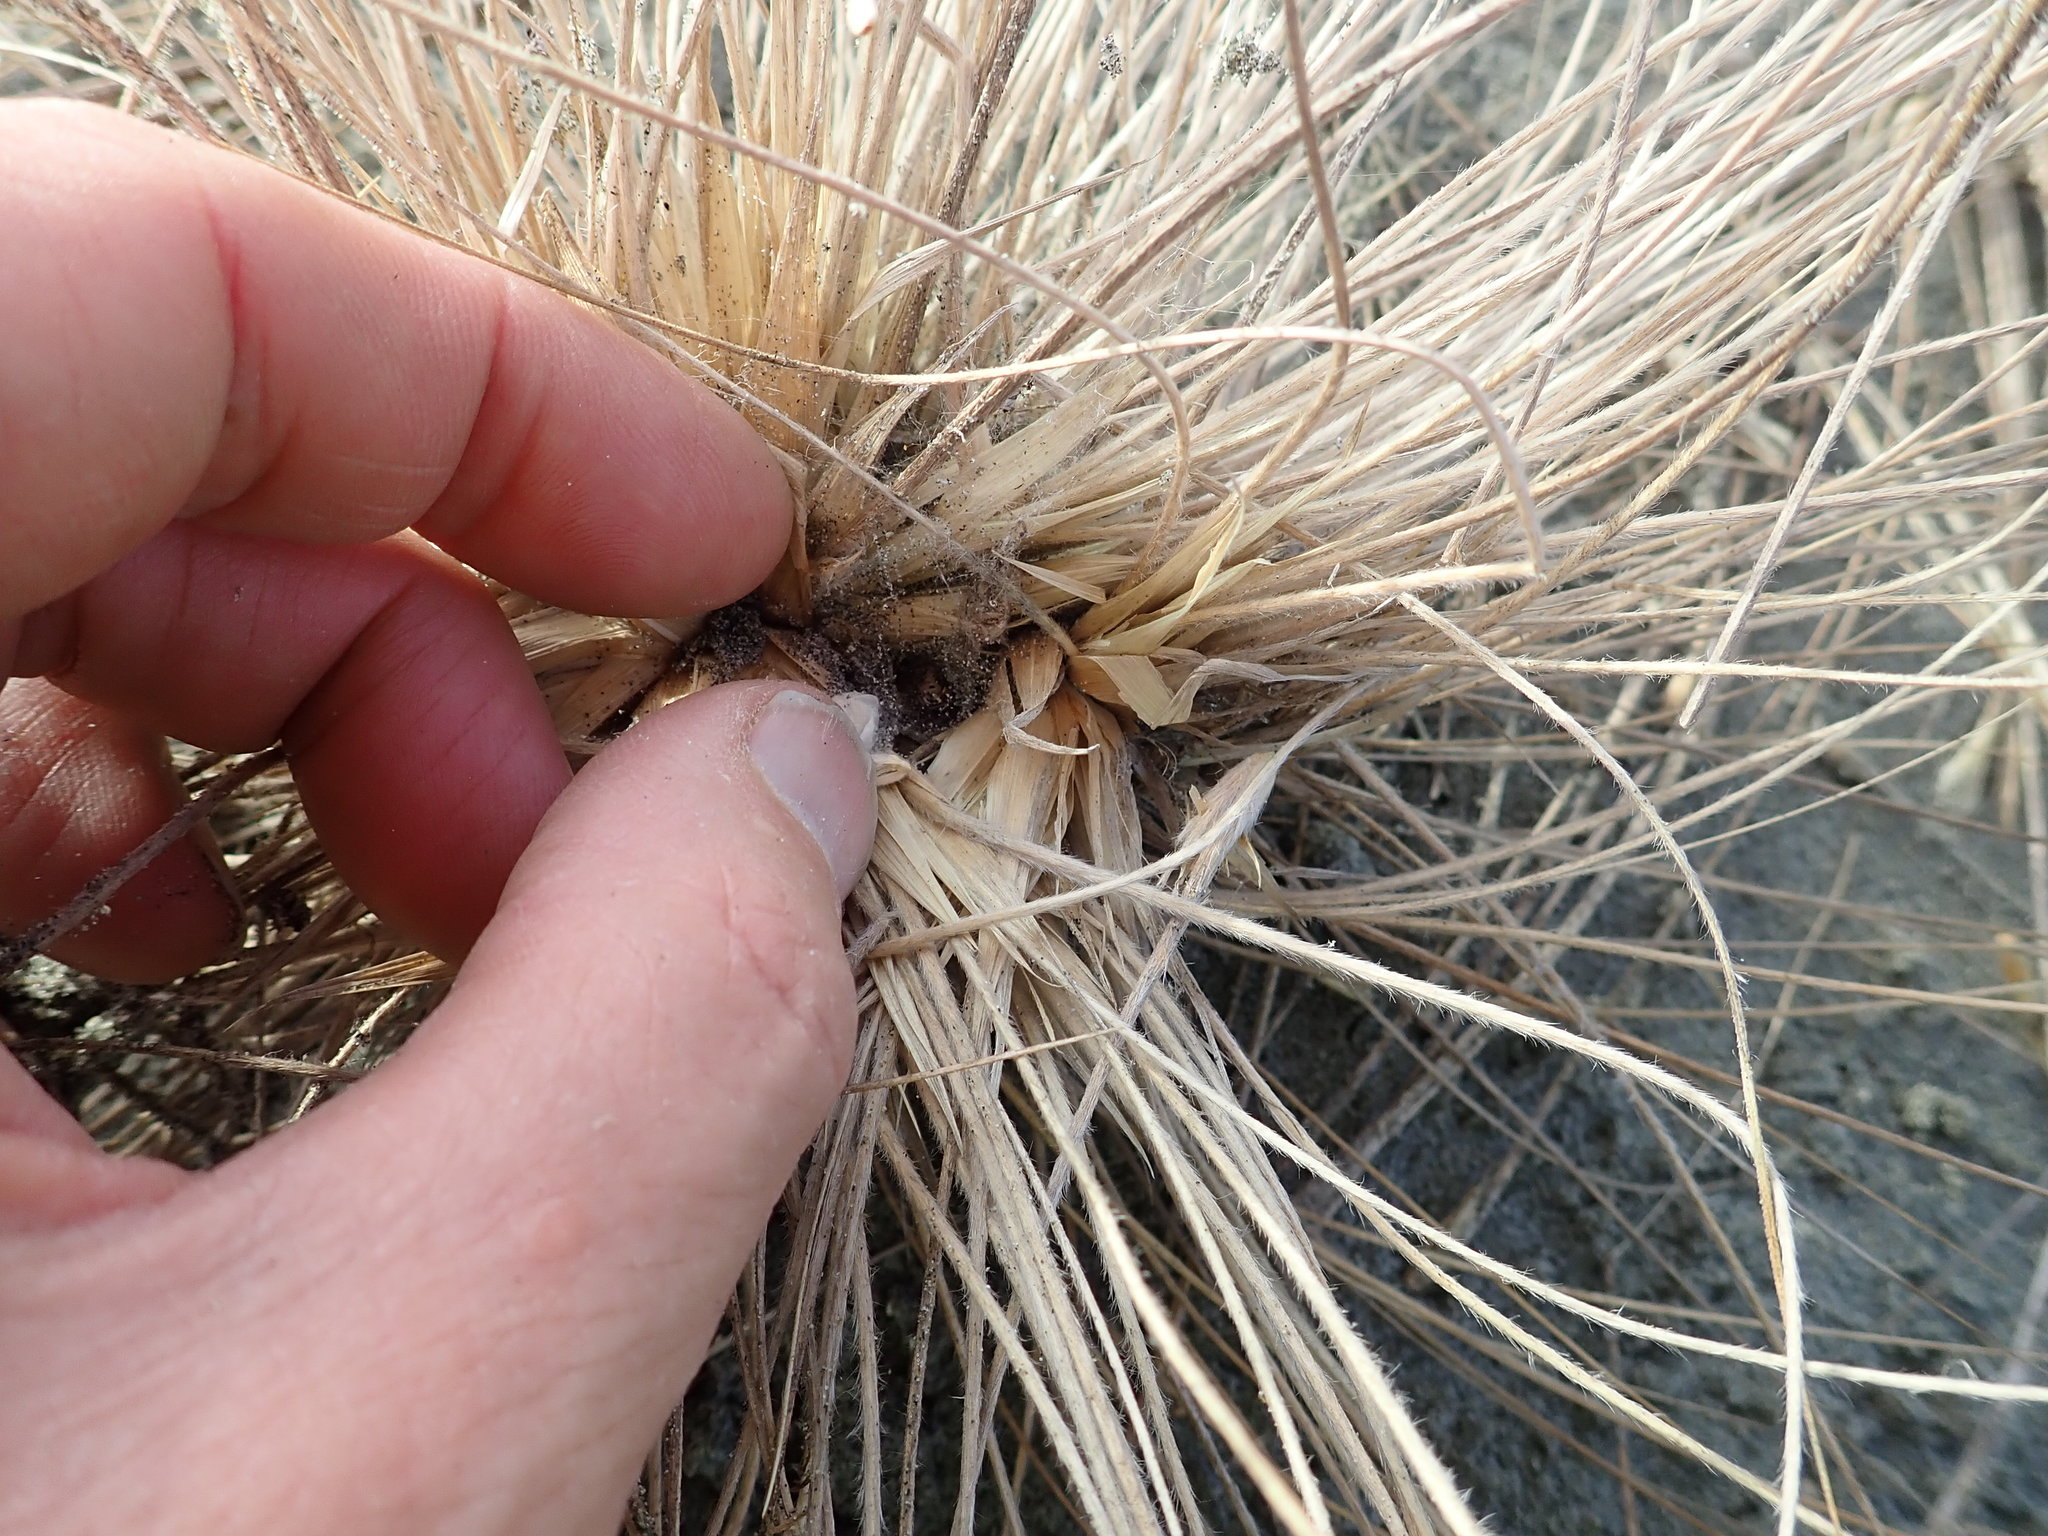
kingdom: Animalia
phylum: Arthropoda
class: Arachnida
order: Araneae
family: Theridiidae
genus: Latrodectus
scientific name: Latrodectus katipo
